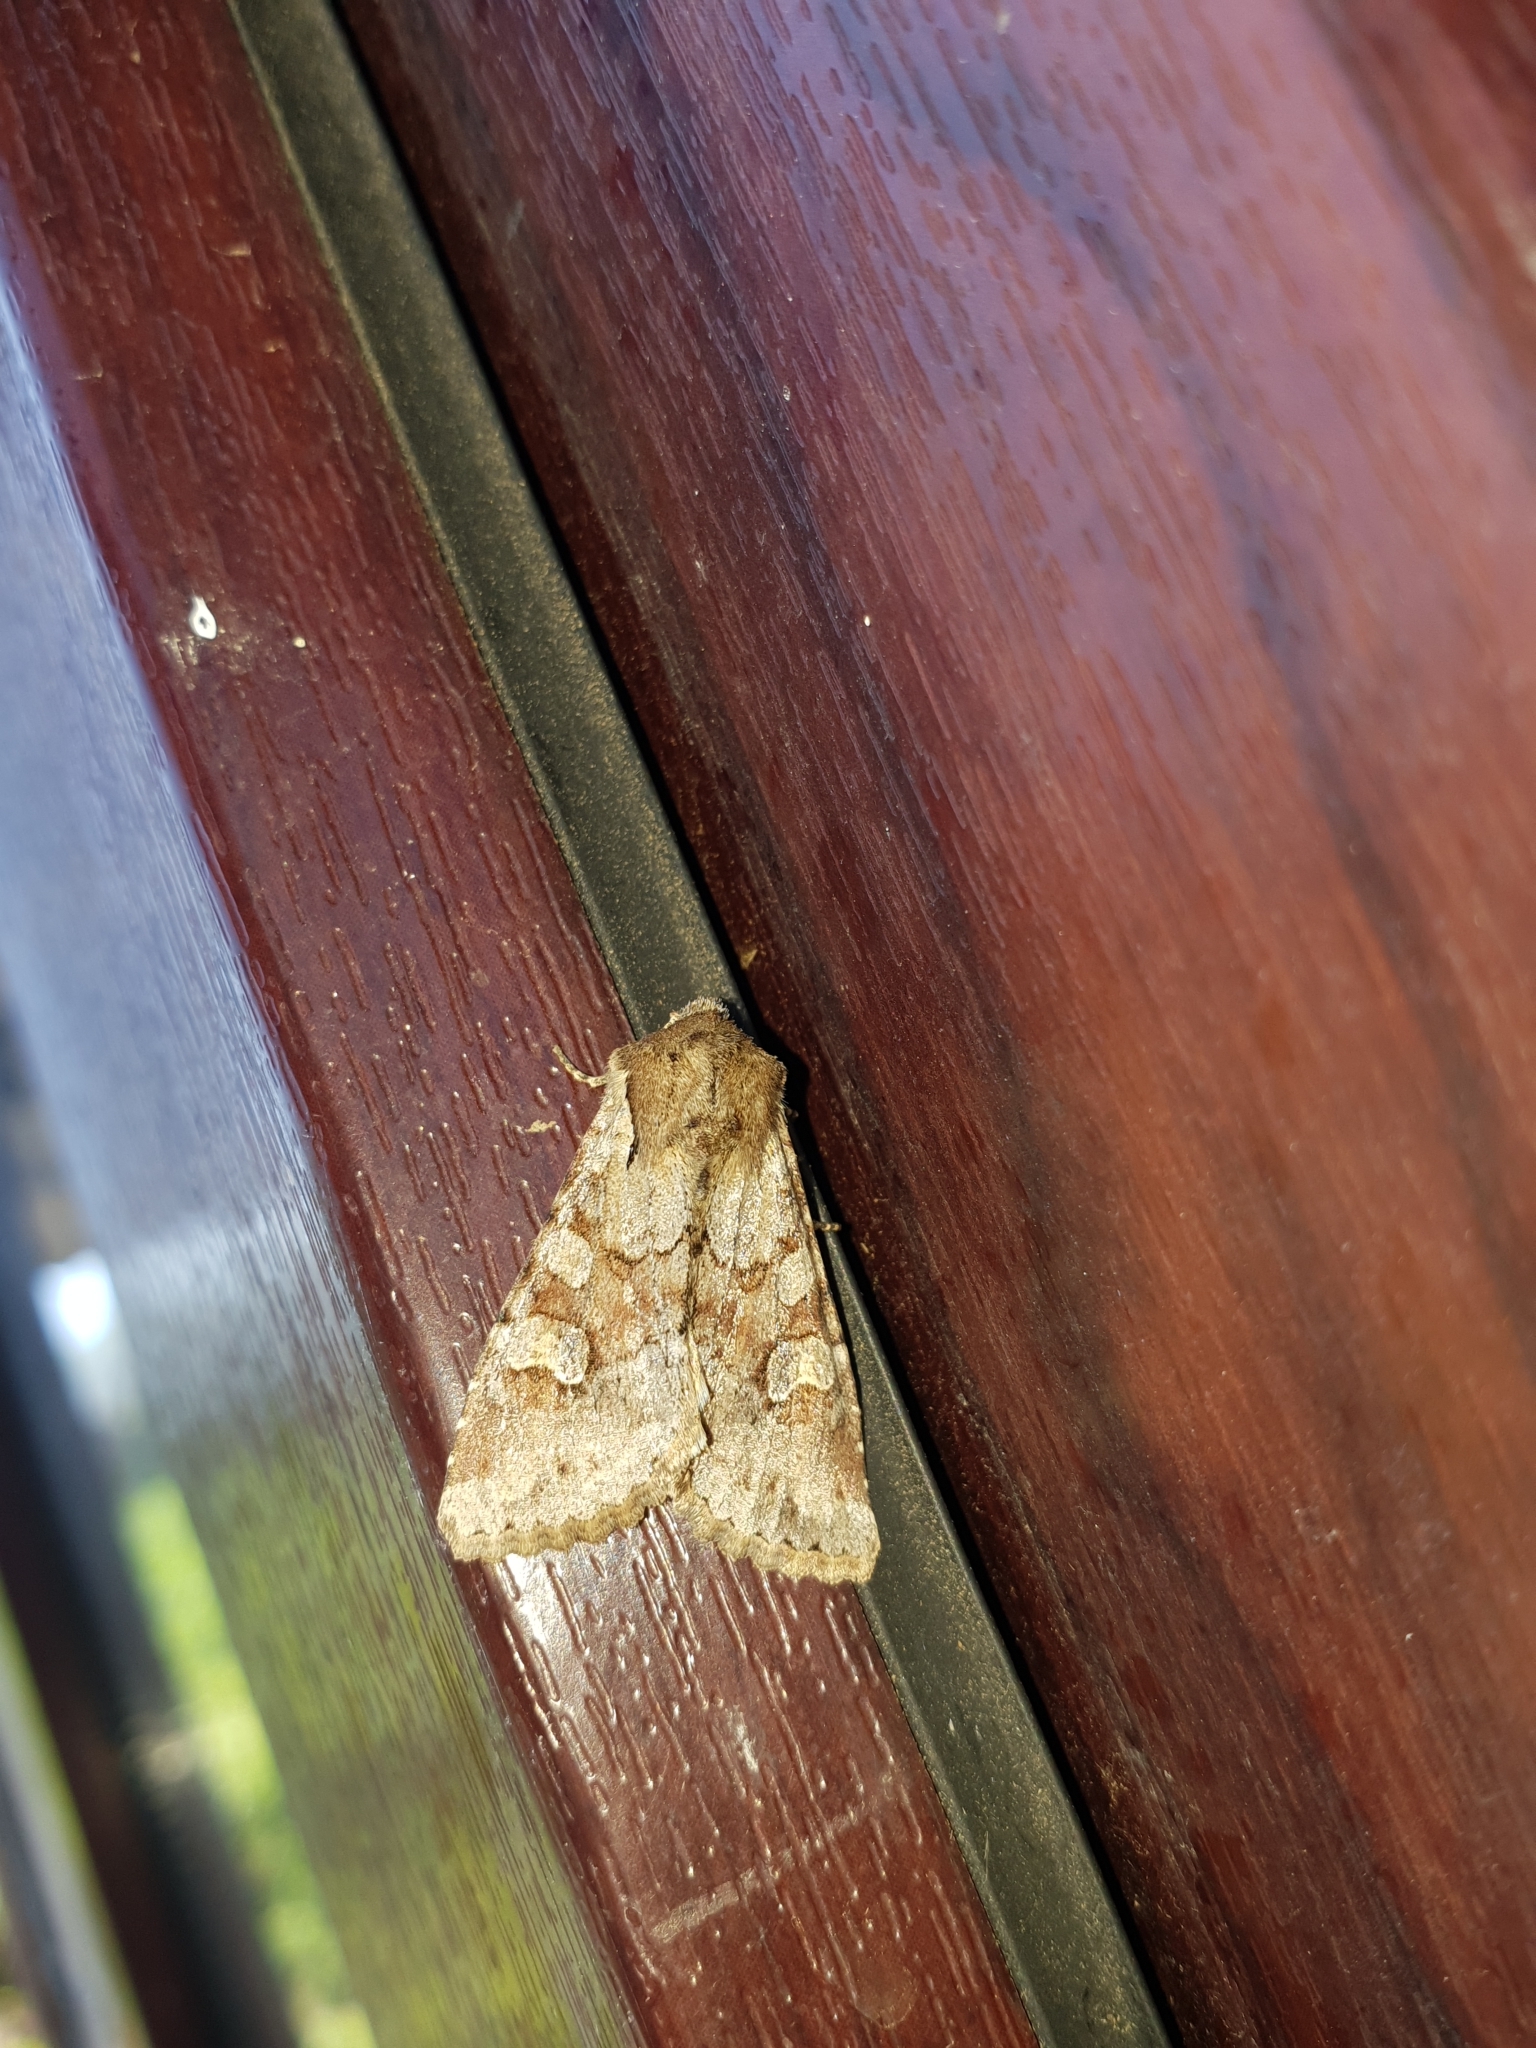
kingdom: Animalia
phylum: Arthropoda
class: Insecta
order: Lepidoptera
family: Noctuidae
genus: Apamea
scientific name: Apamea sordens
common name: Rustic shoulder-knot
